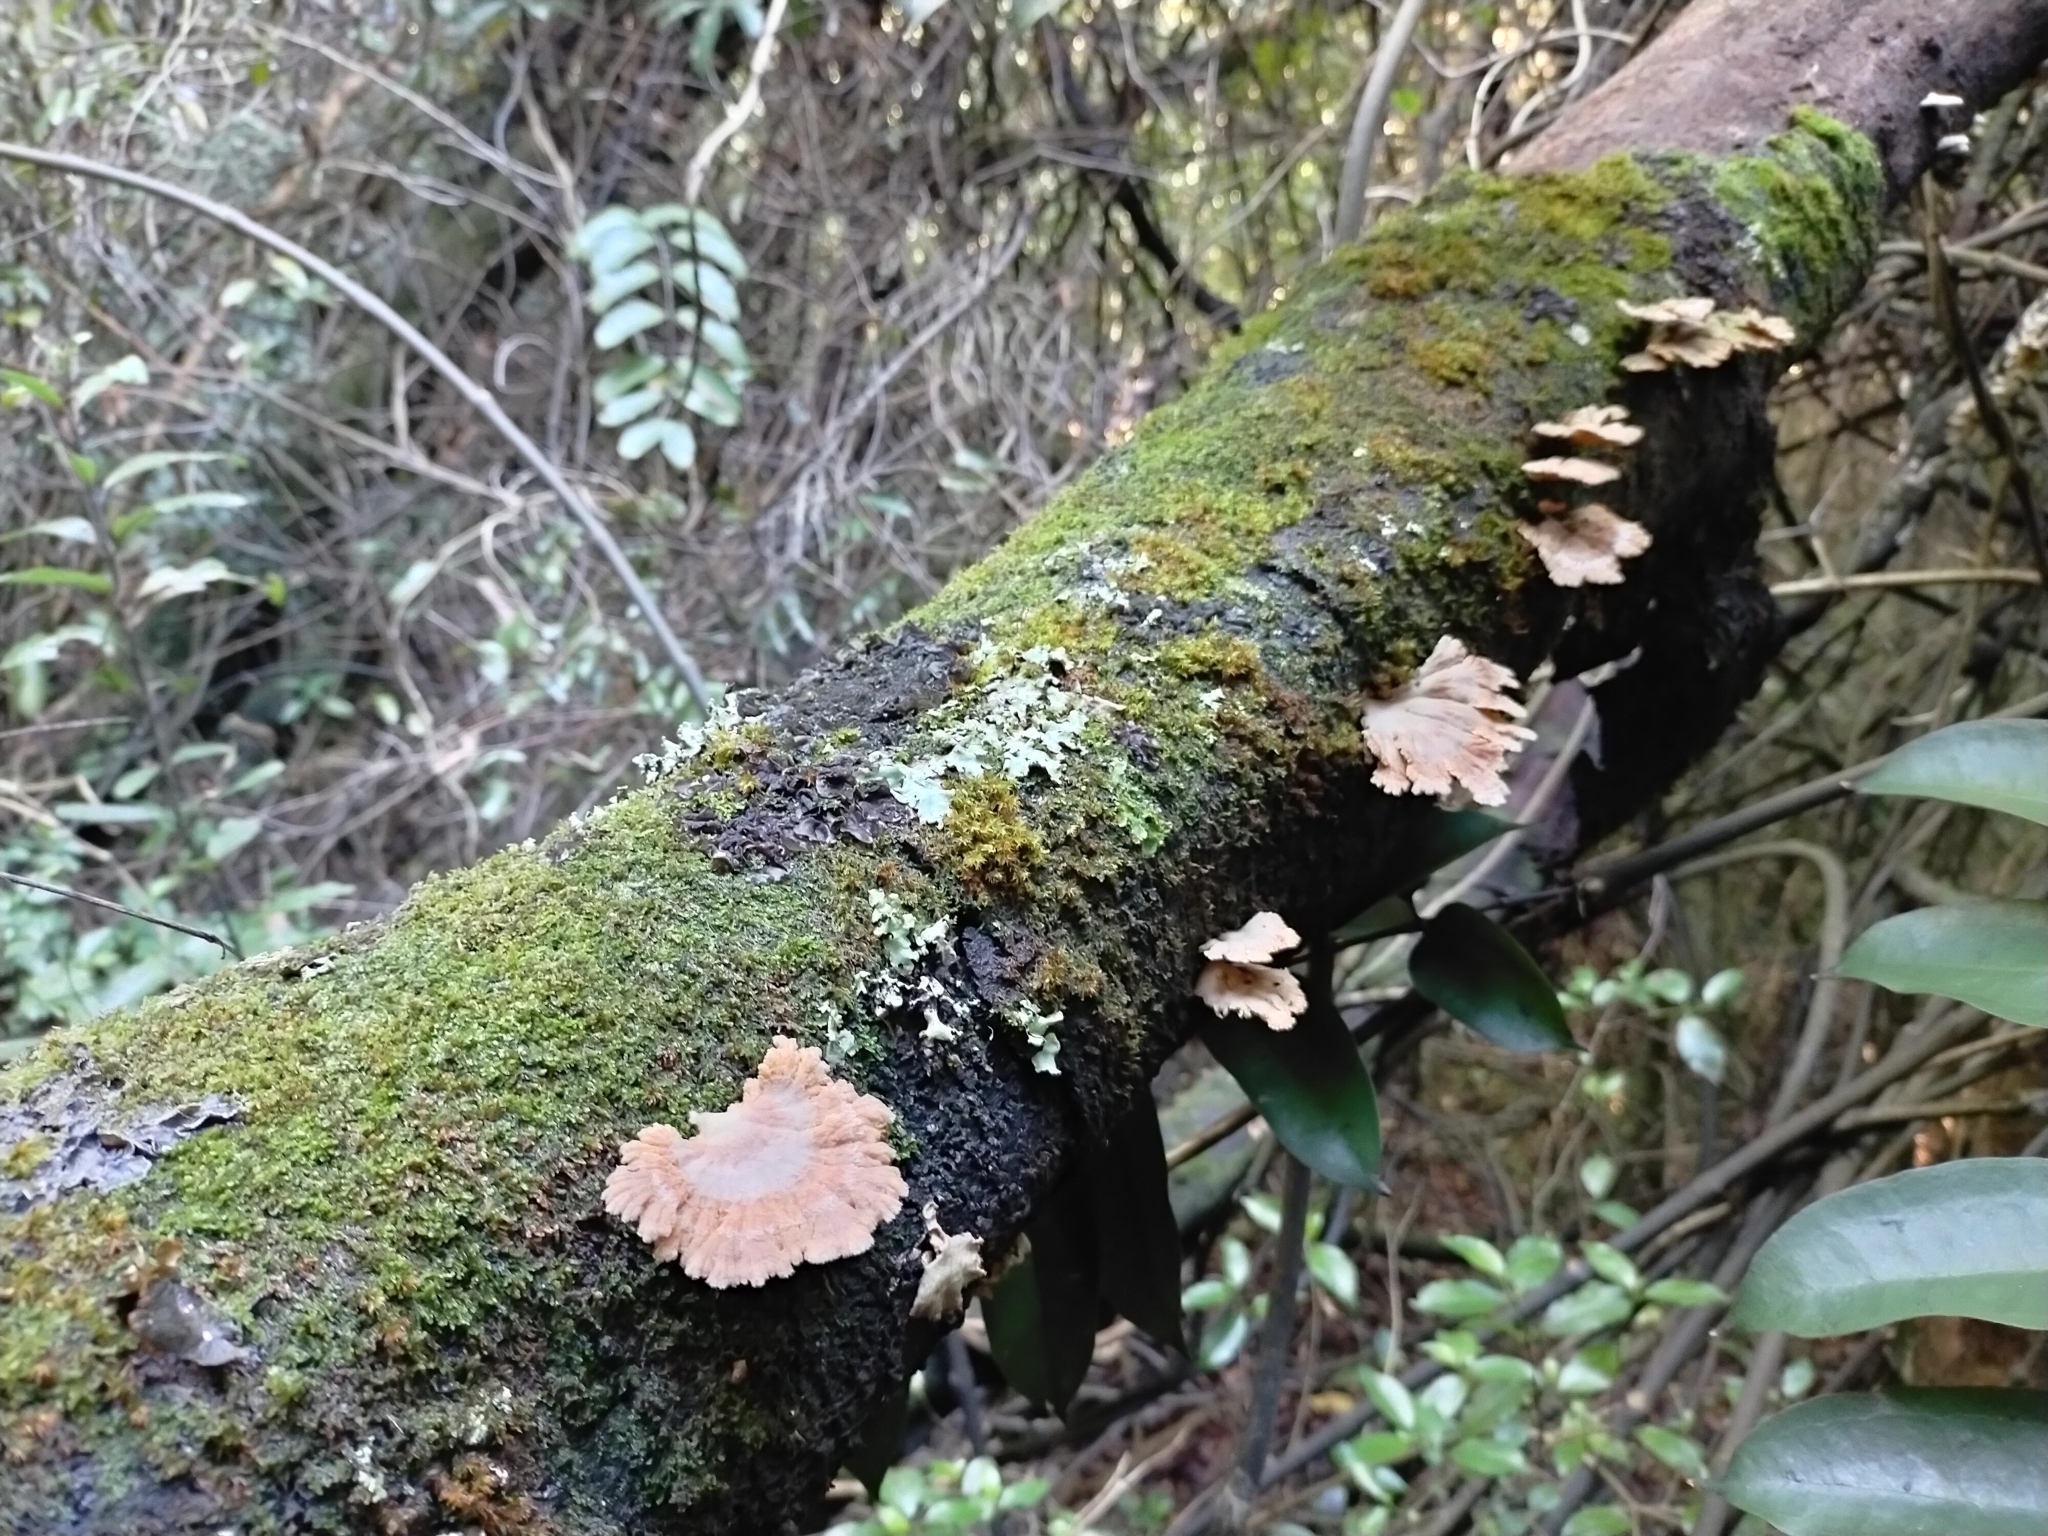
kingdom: Fungi
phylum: Basidiomycota
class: Agaricomycetes
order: Agaricales
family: Schizophyllaceae
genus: Schizophyllum
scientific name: Schizophyllum commune
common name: Common porecrust
